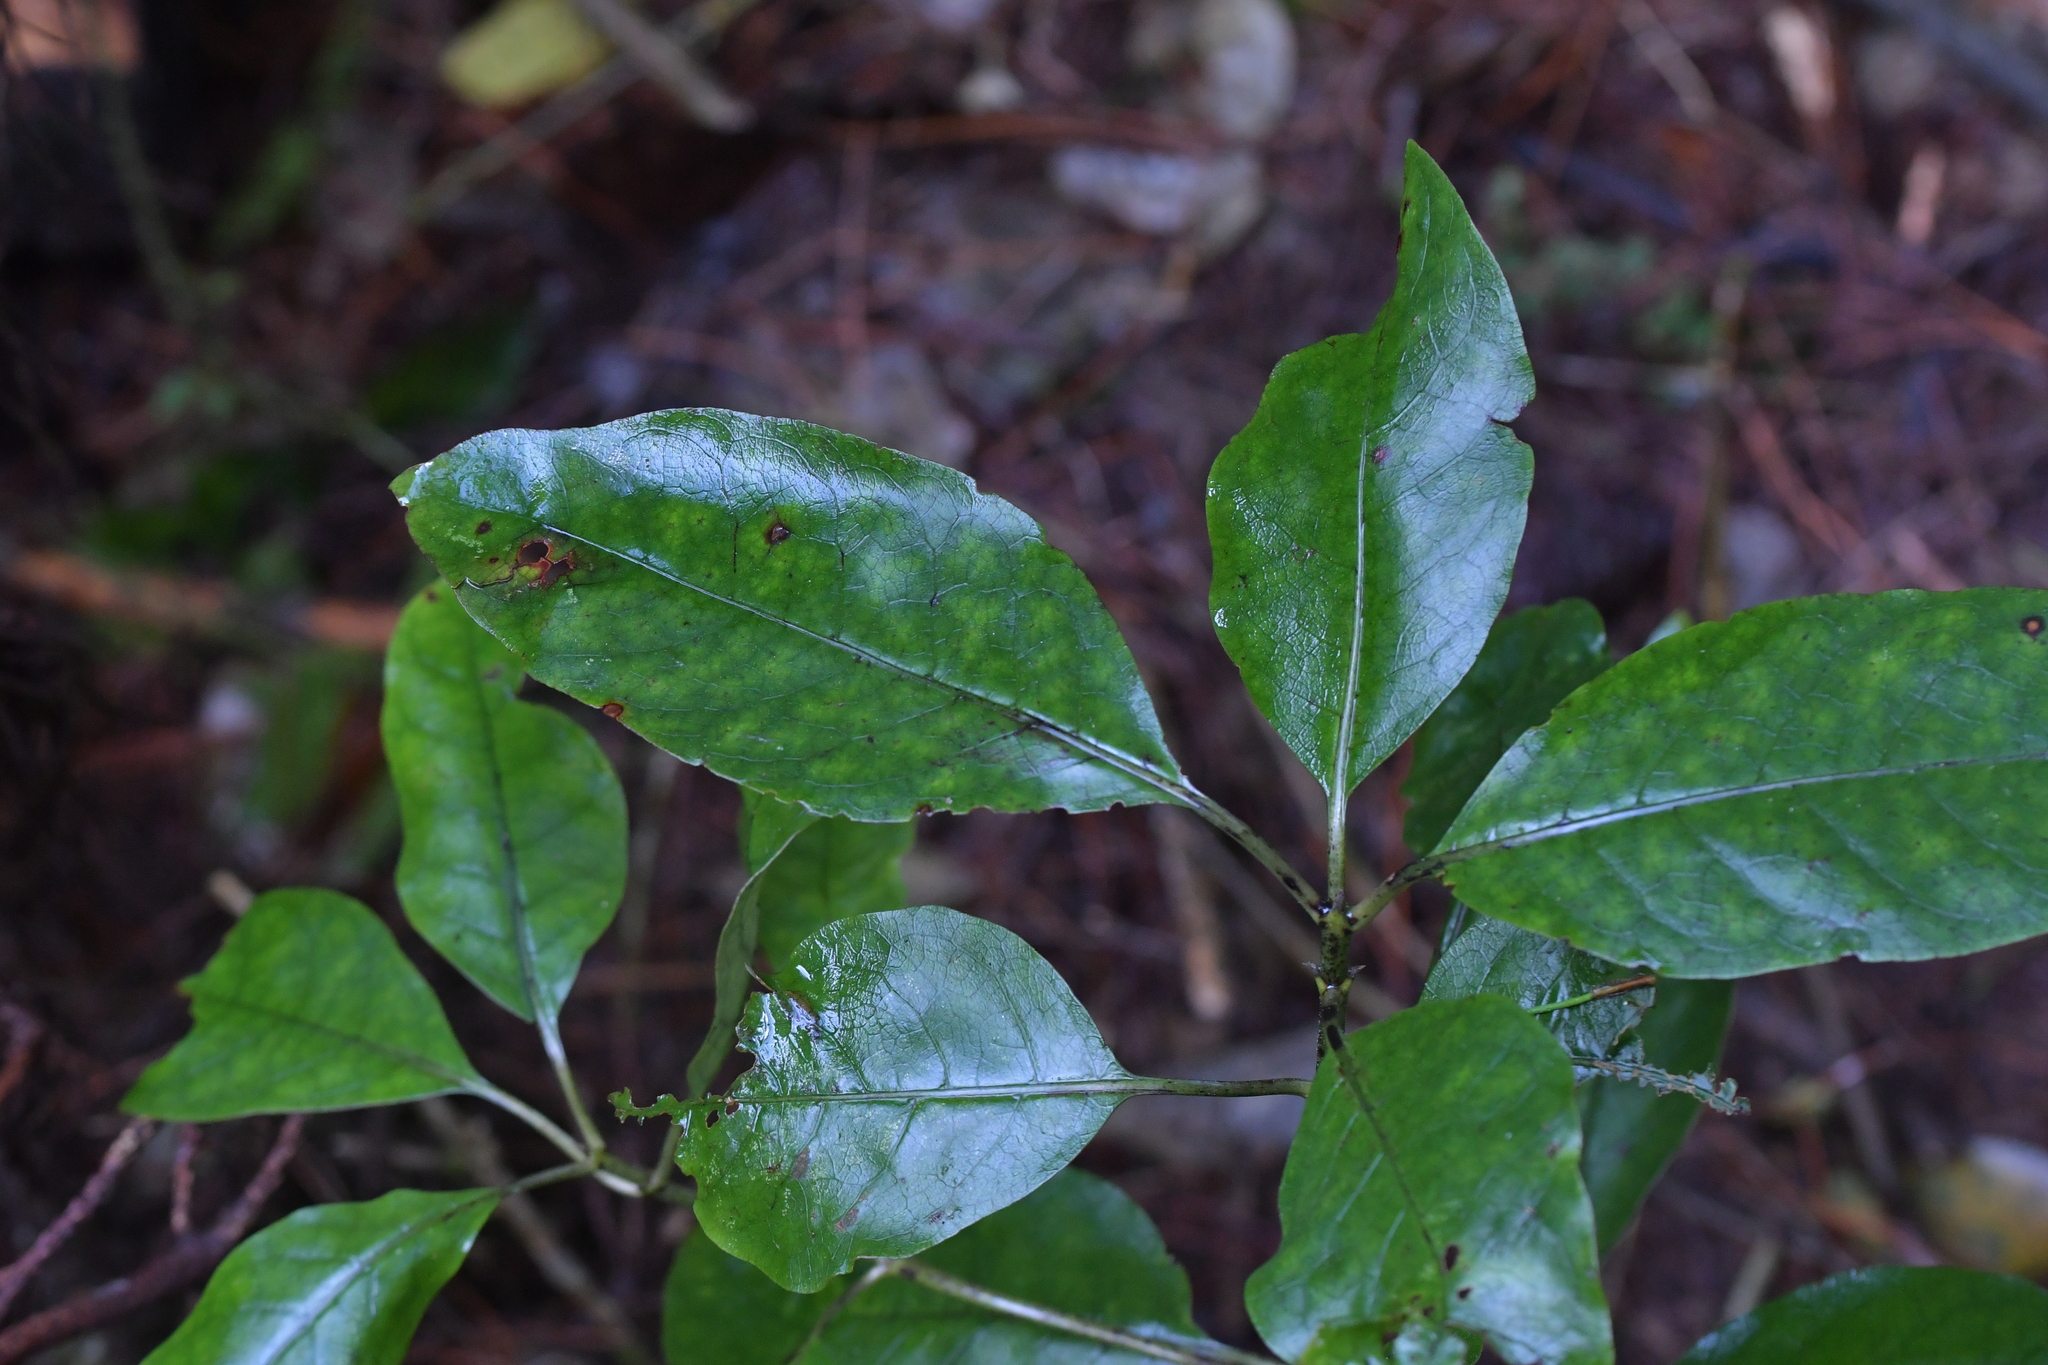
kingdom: Plantae
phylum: Tracheophyta
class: Magnoliopsida
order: Gentianales
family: Rubiaceae
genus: Coprosma
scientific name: Coprosma autumnalis
